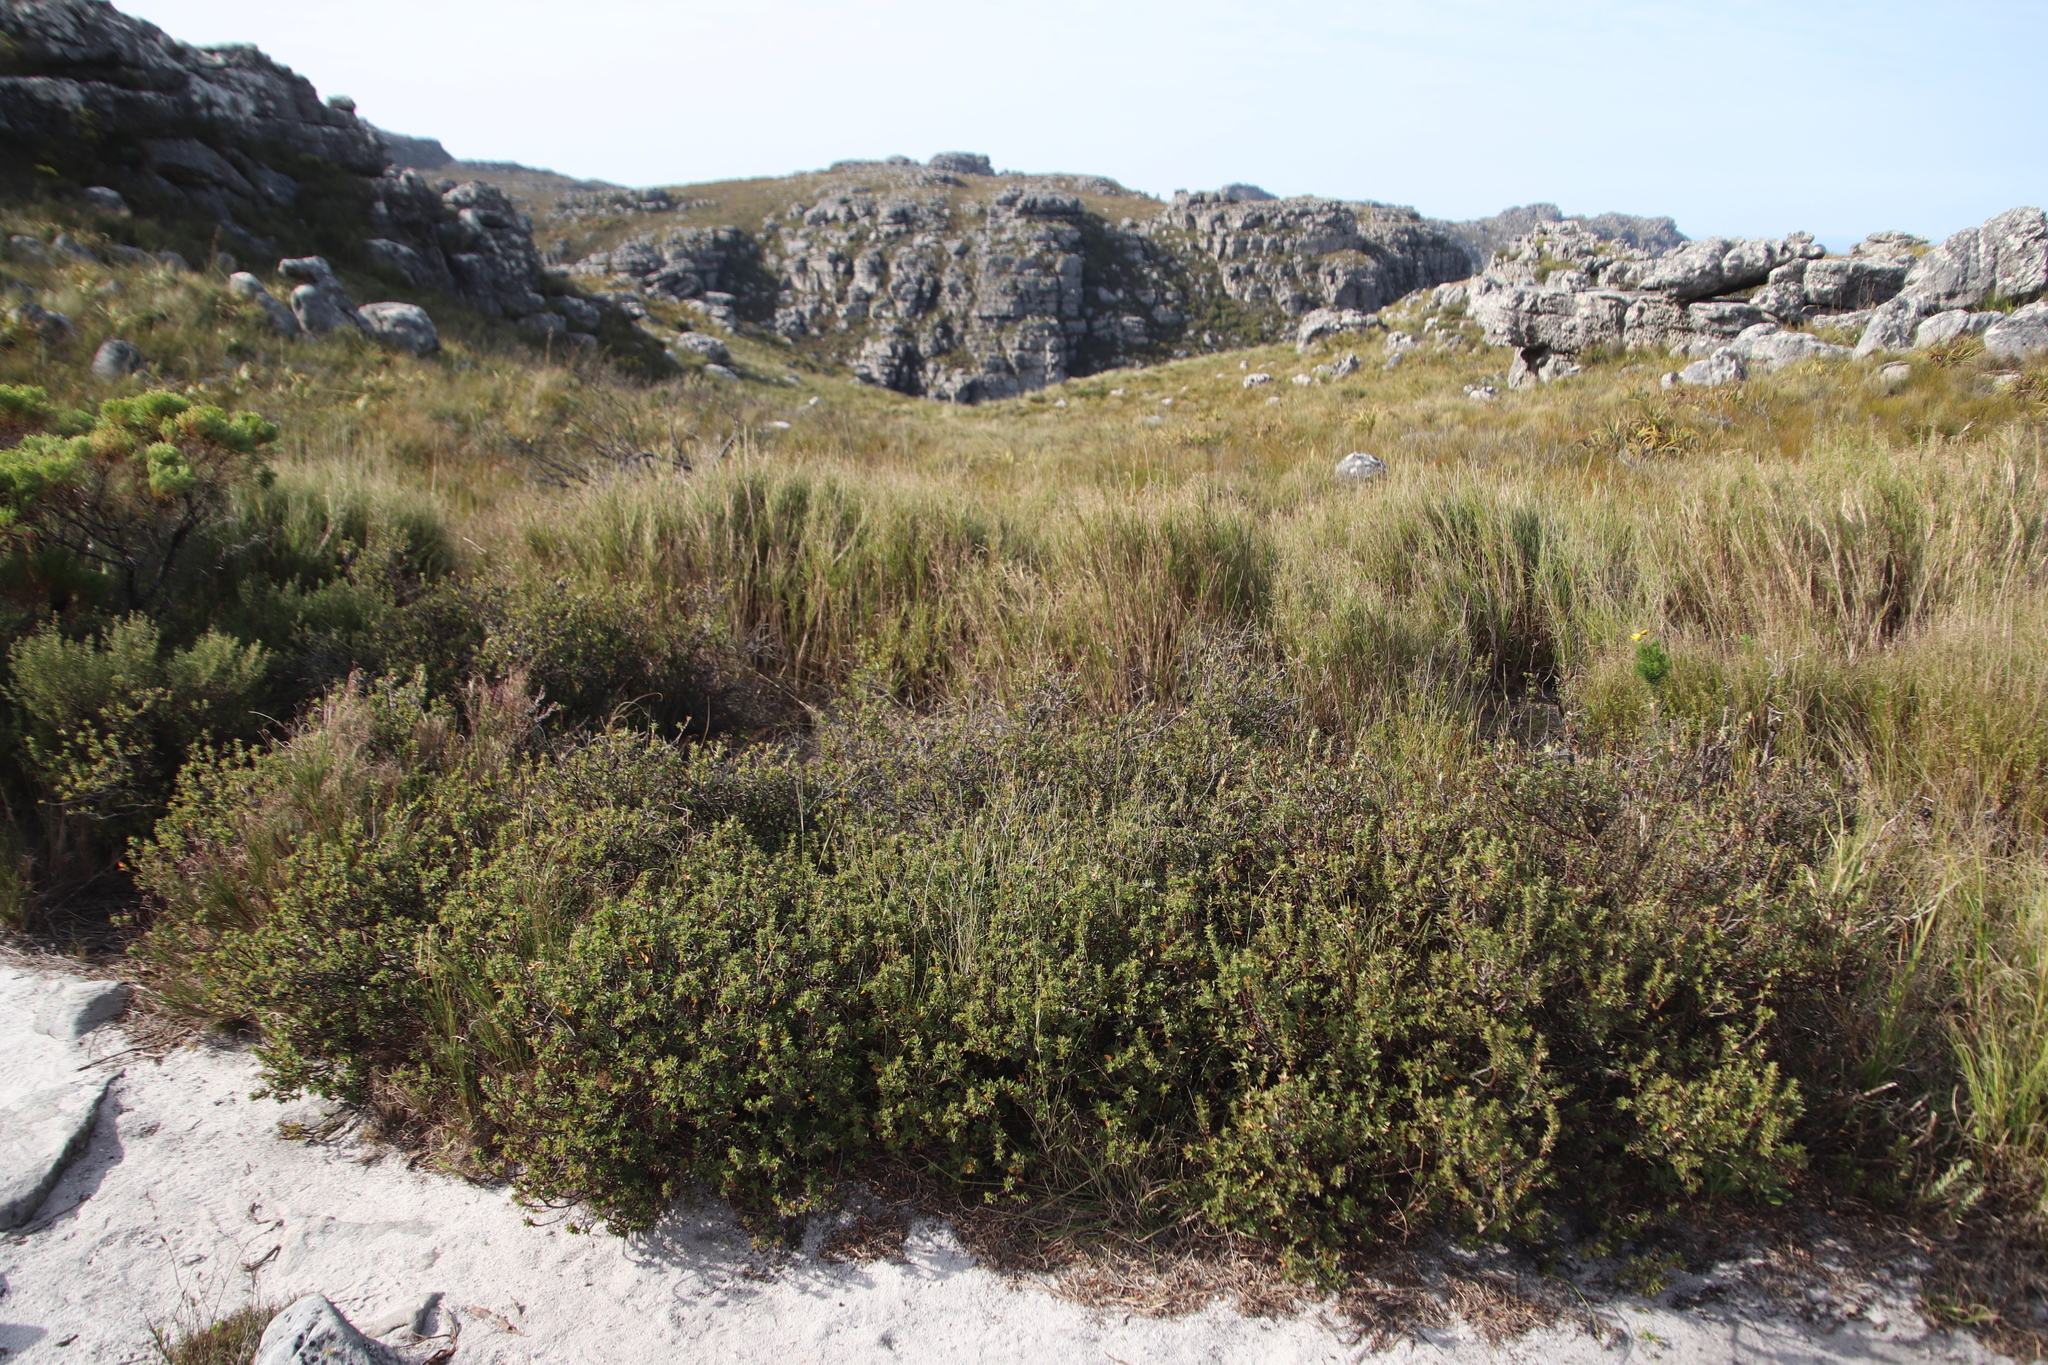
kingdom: Plantae
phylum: Tracheophyta
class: Liliopsida
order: Poales
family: Poaceae
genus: Pseudopentameris
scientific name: Pseudopentameris macrantha
